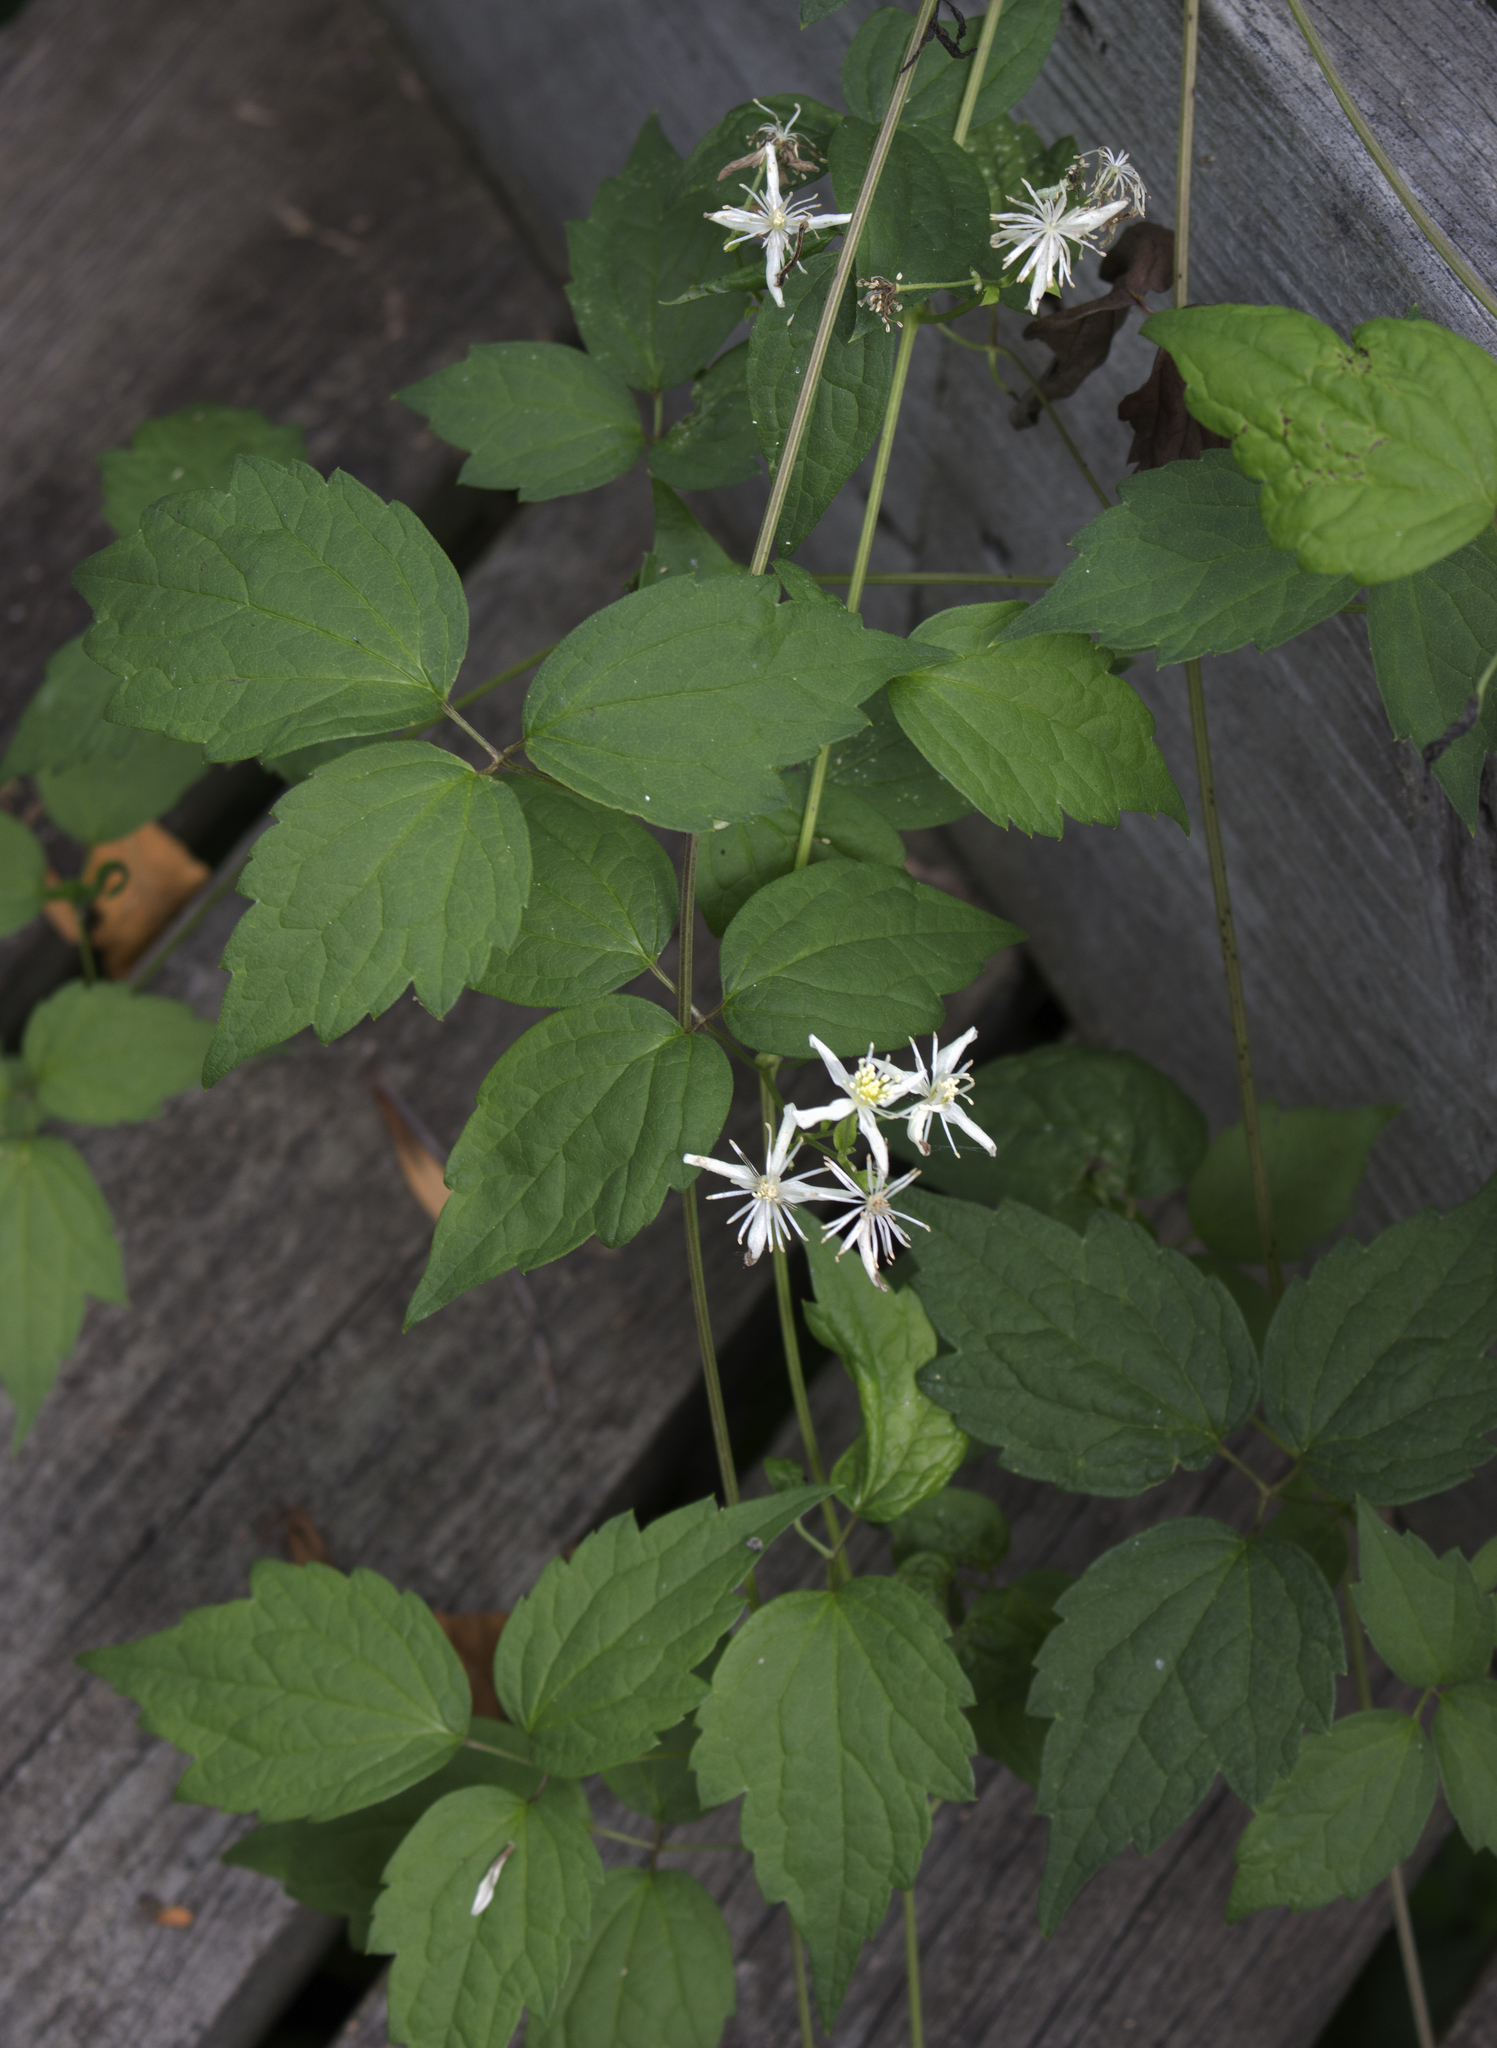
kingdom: Plantae
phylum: Tracheophyta
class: Magnoliopsida
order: Ranunculales
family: Ranunculaceae
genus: Clematis
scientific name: Clematis virginiana
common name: Virgin's-bower
